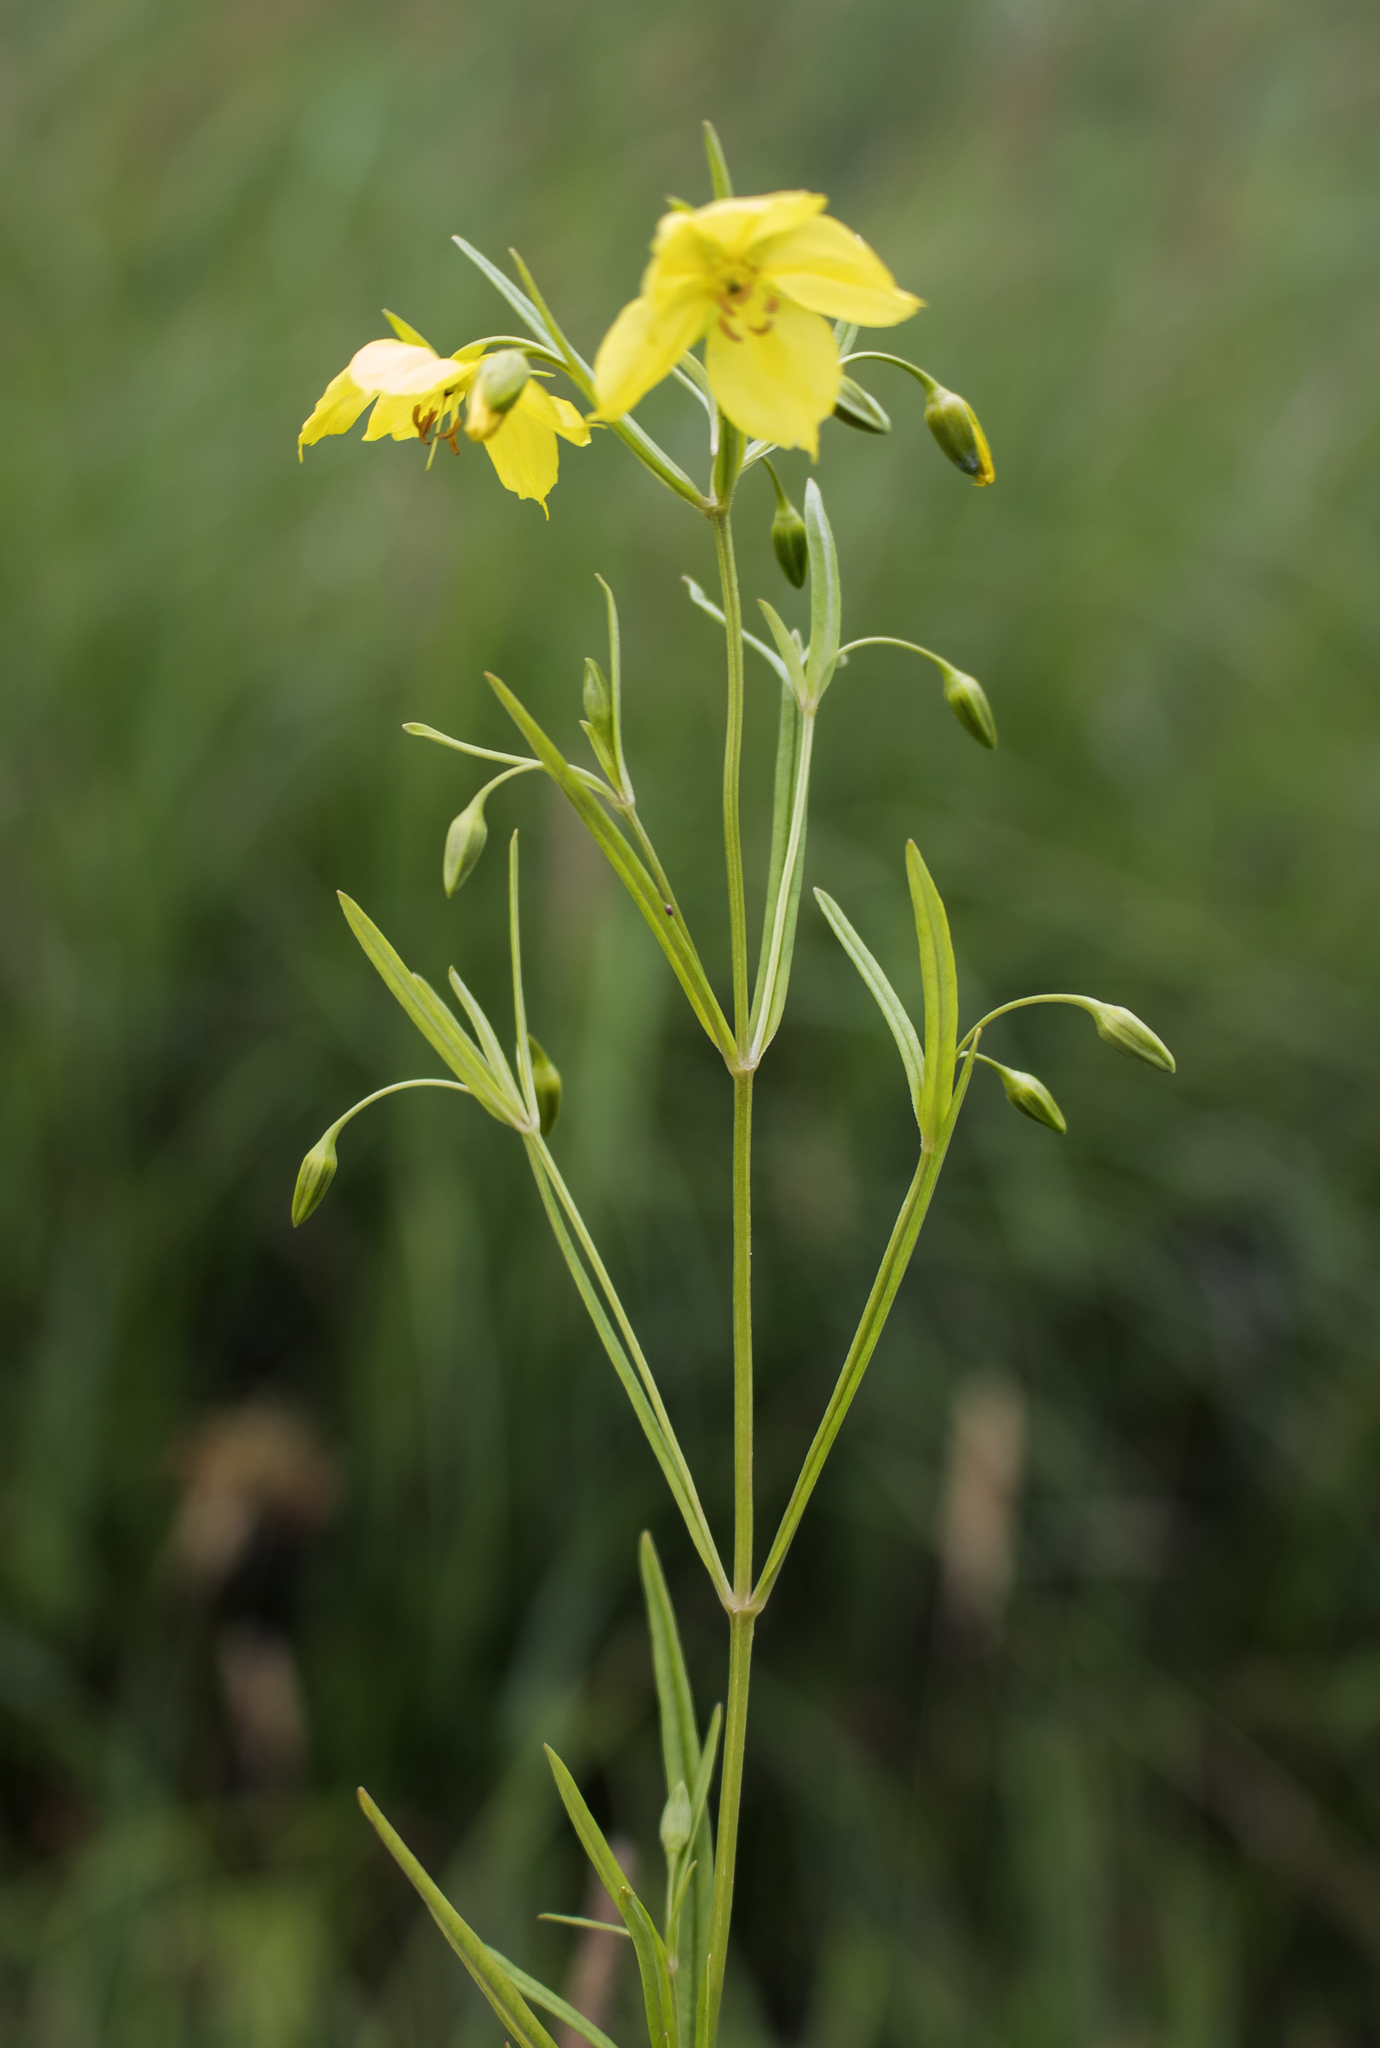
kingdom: Plantae
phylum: Tracheophyta
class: Magnoliopsida
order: Ericales
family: Primulaceae
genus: Lysimachia
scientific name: Lysimachia quadriflora
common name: Four-flowered loosestrife
